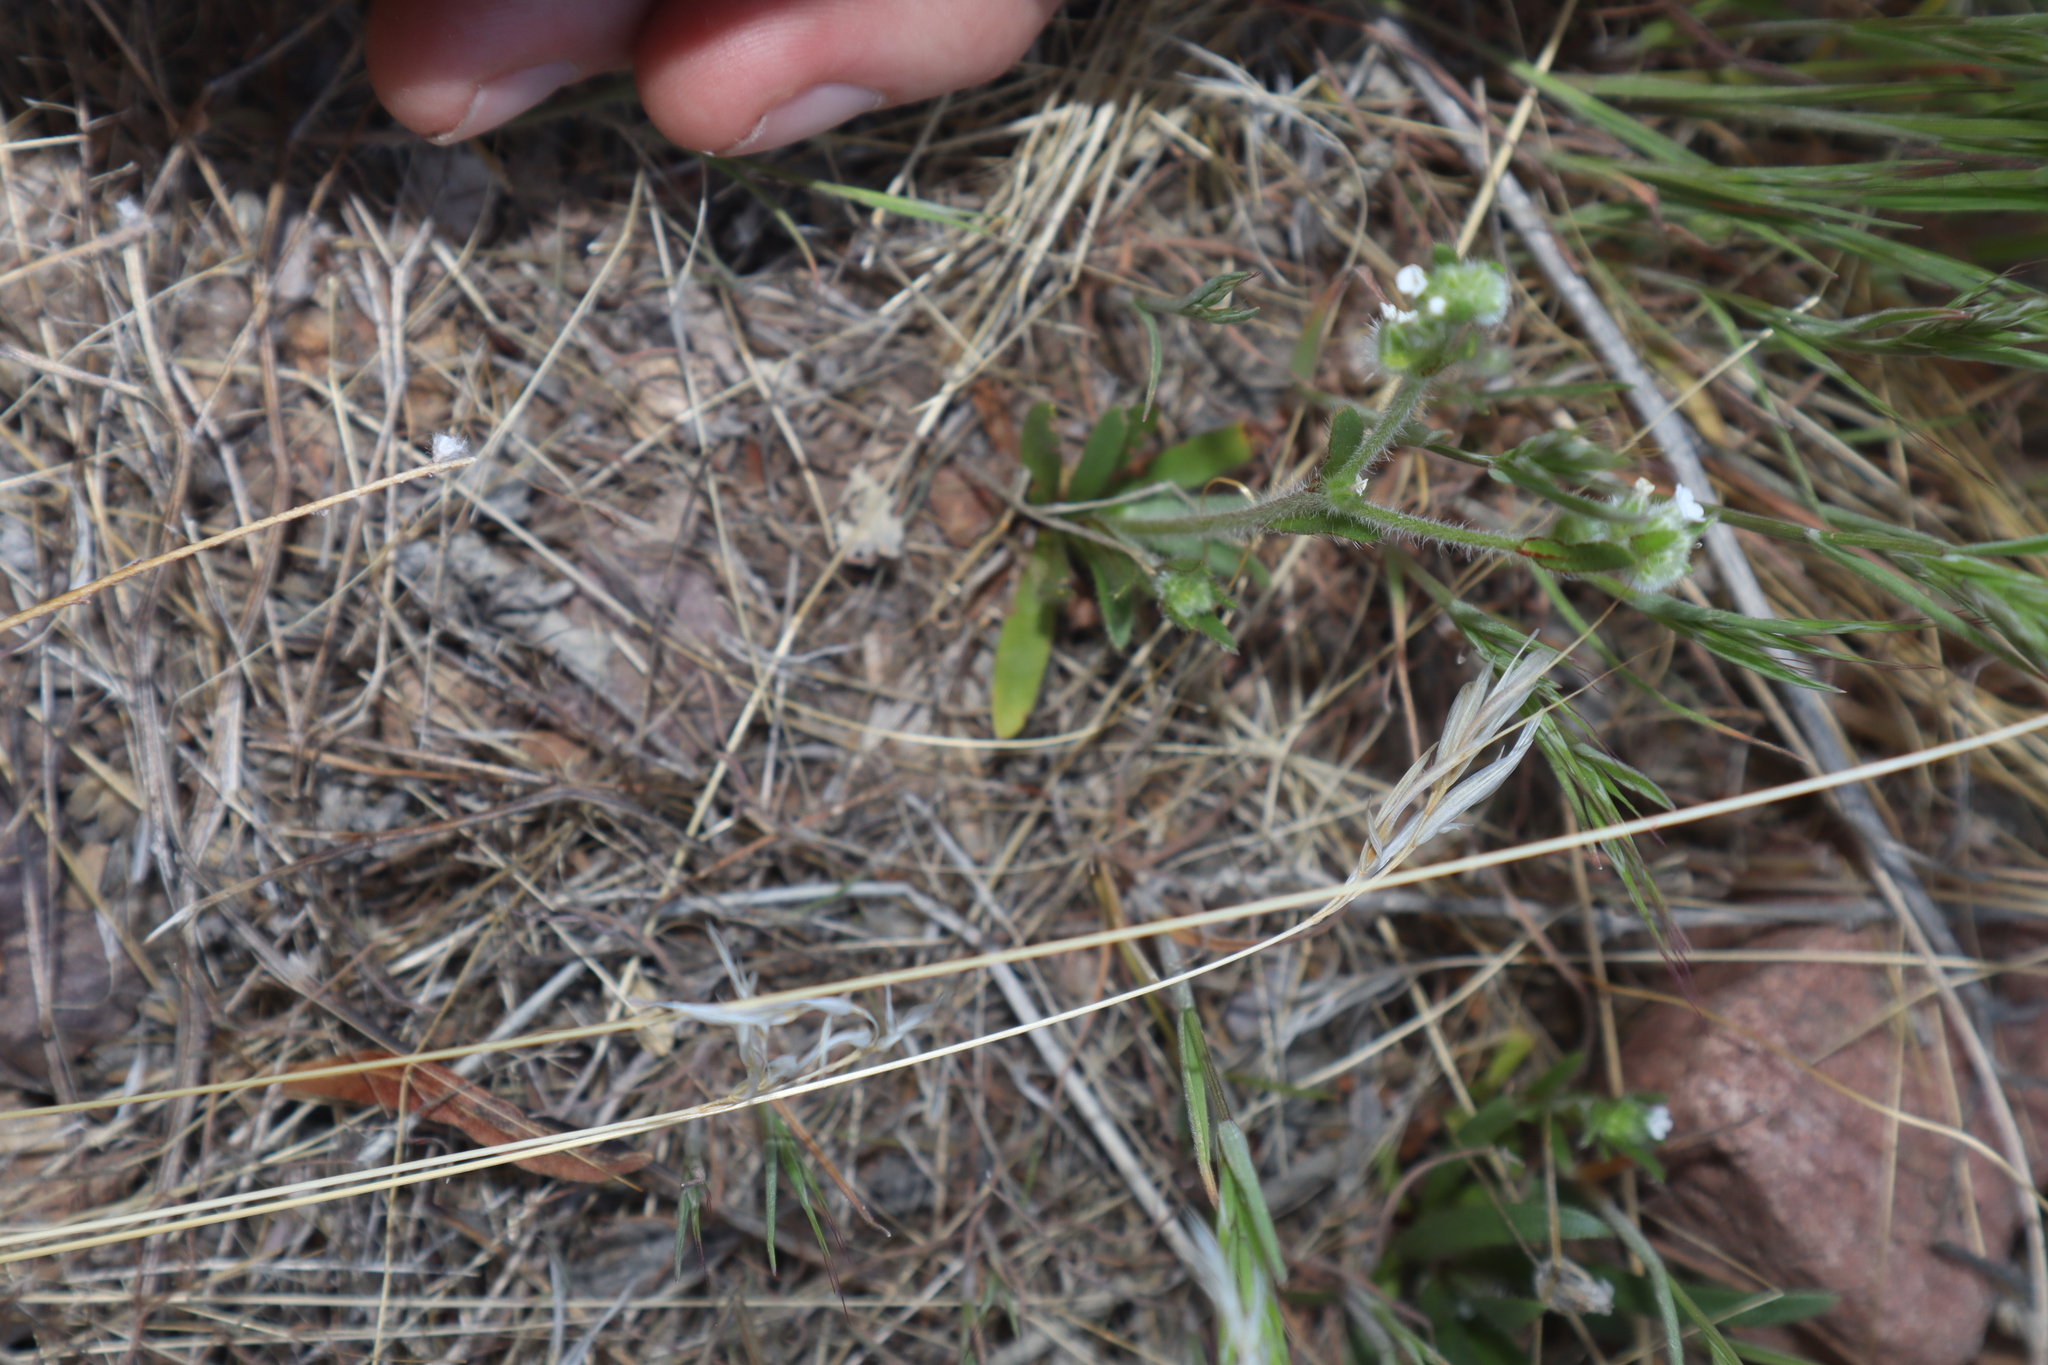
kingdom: Plantae
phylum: Tracheophyta
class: Magnoliopsida
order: Boraginales
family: Boraginaceae
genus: Plagiobothrys
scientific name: Plagiobothrys arizonicus
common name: Arizona popcorn-flower
